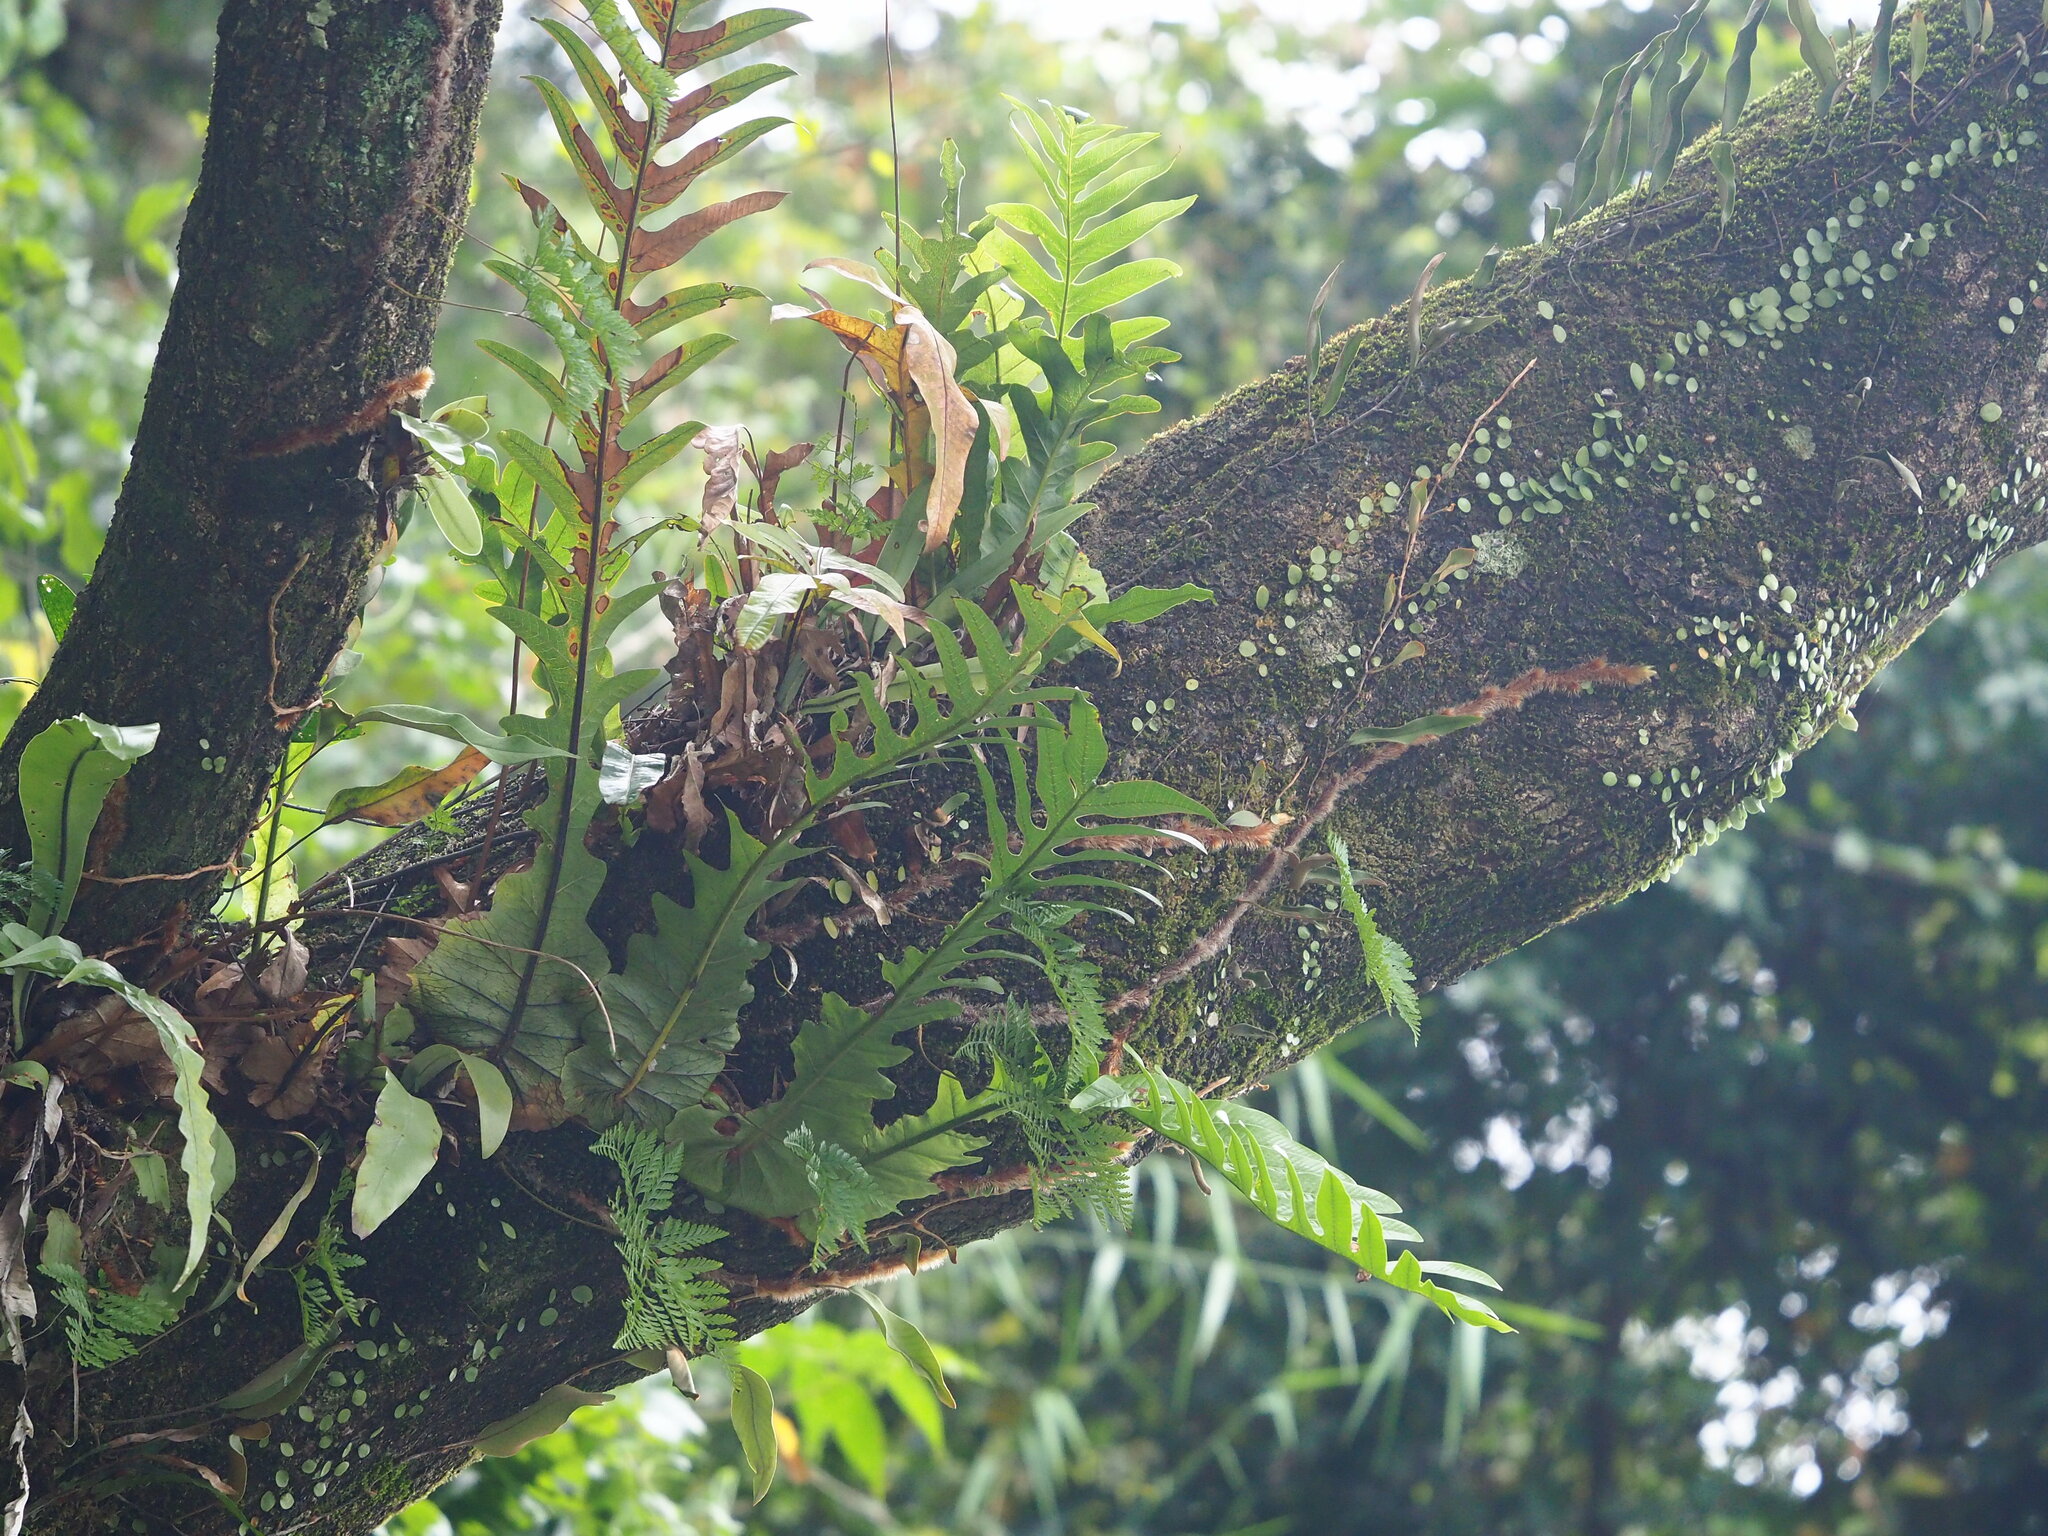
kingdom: Plantae
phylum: Tracheophyta
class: Polypodiopsida
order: Polypodiales
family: Polypodiaceae
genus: Drynaria
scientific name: Drynaria coronans
